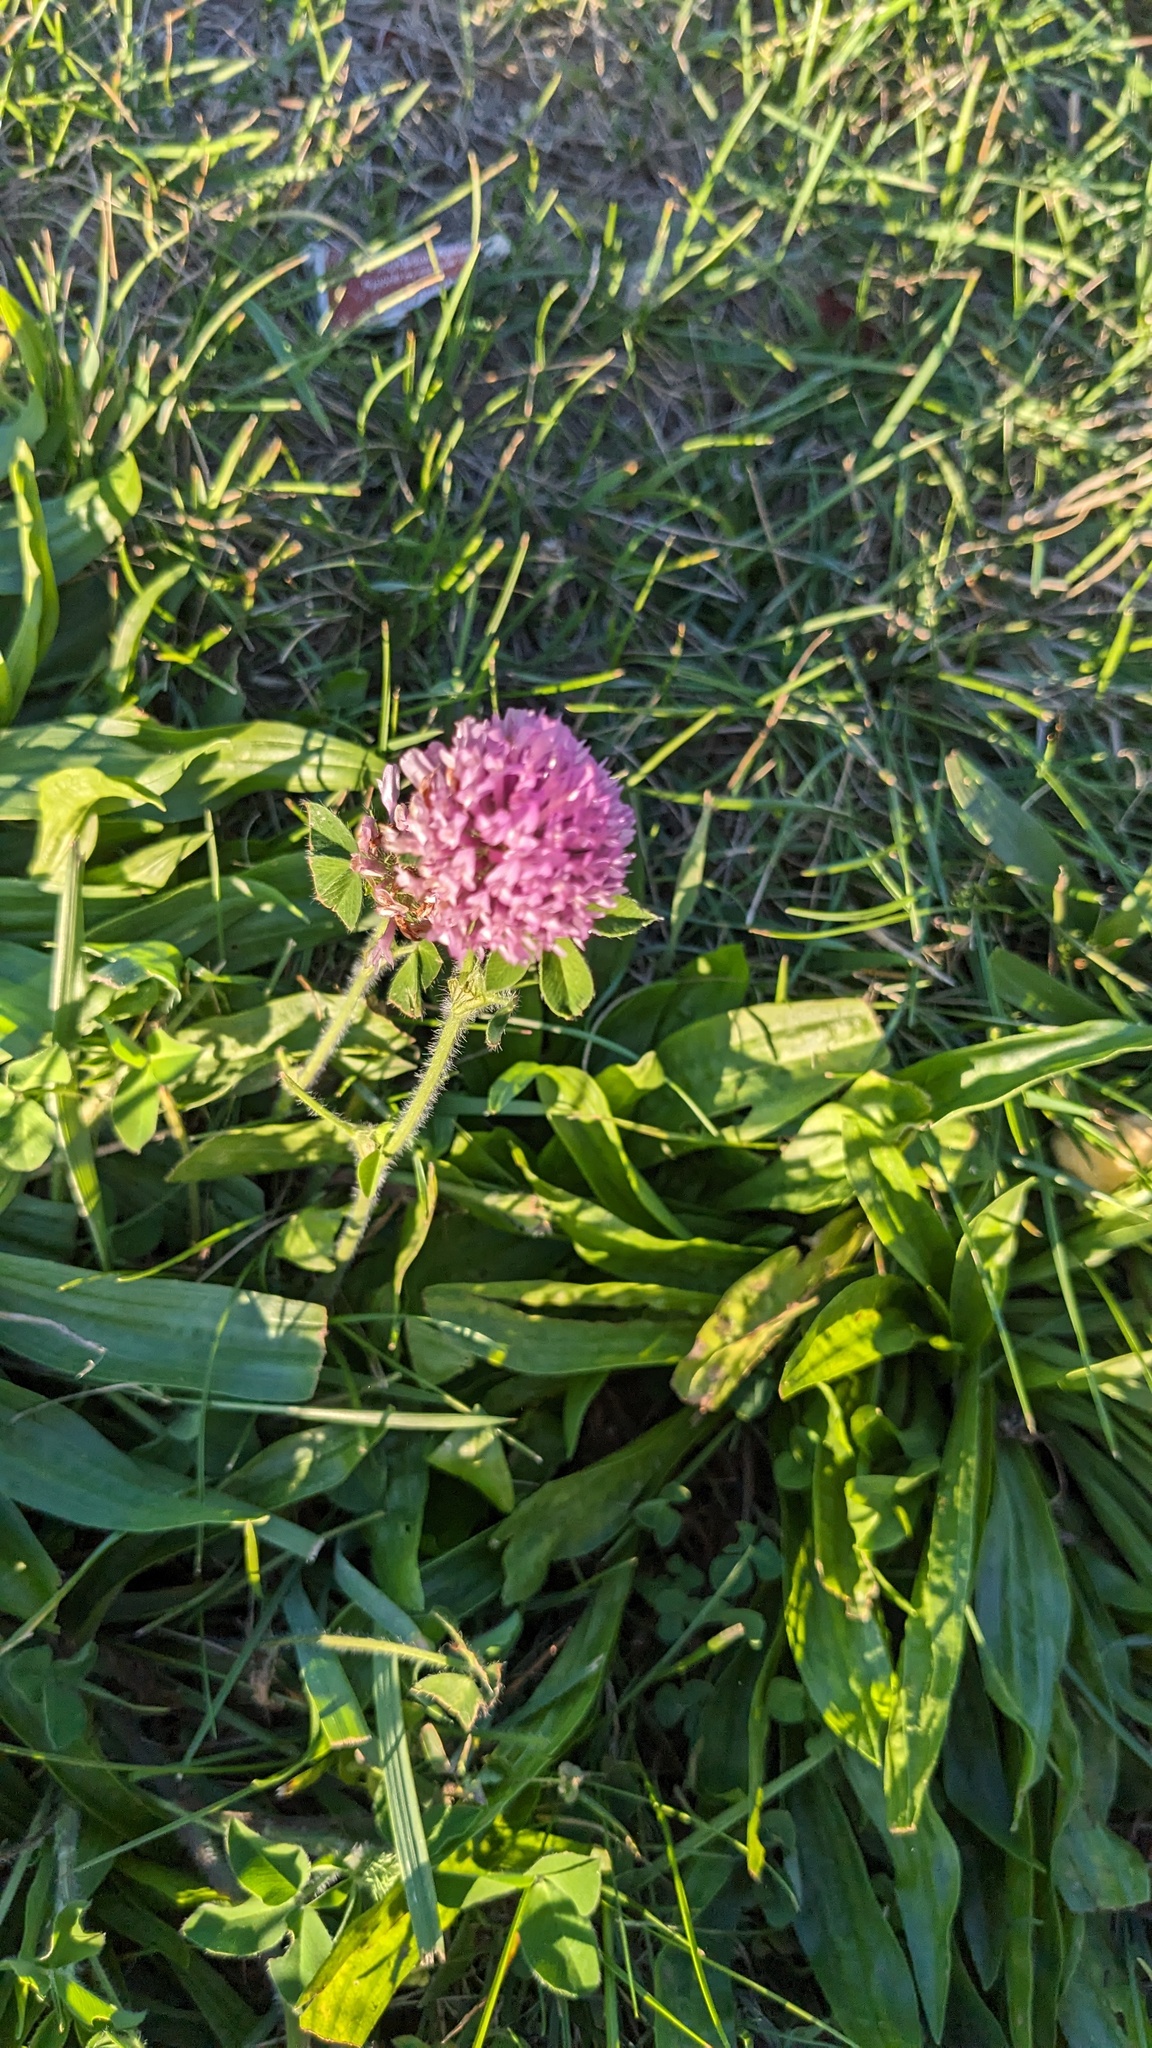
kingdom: Plantae
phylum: Tracheophyta
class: Magnoliopsida
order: Fabales
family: Fabaceae
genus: Trifolium
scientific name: Trifolium pratense
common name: Red clover
